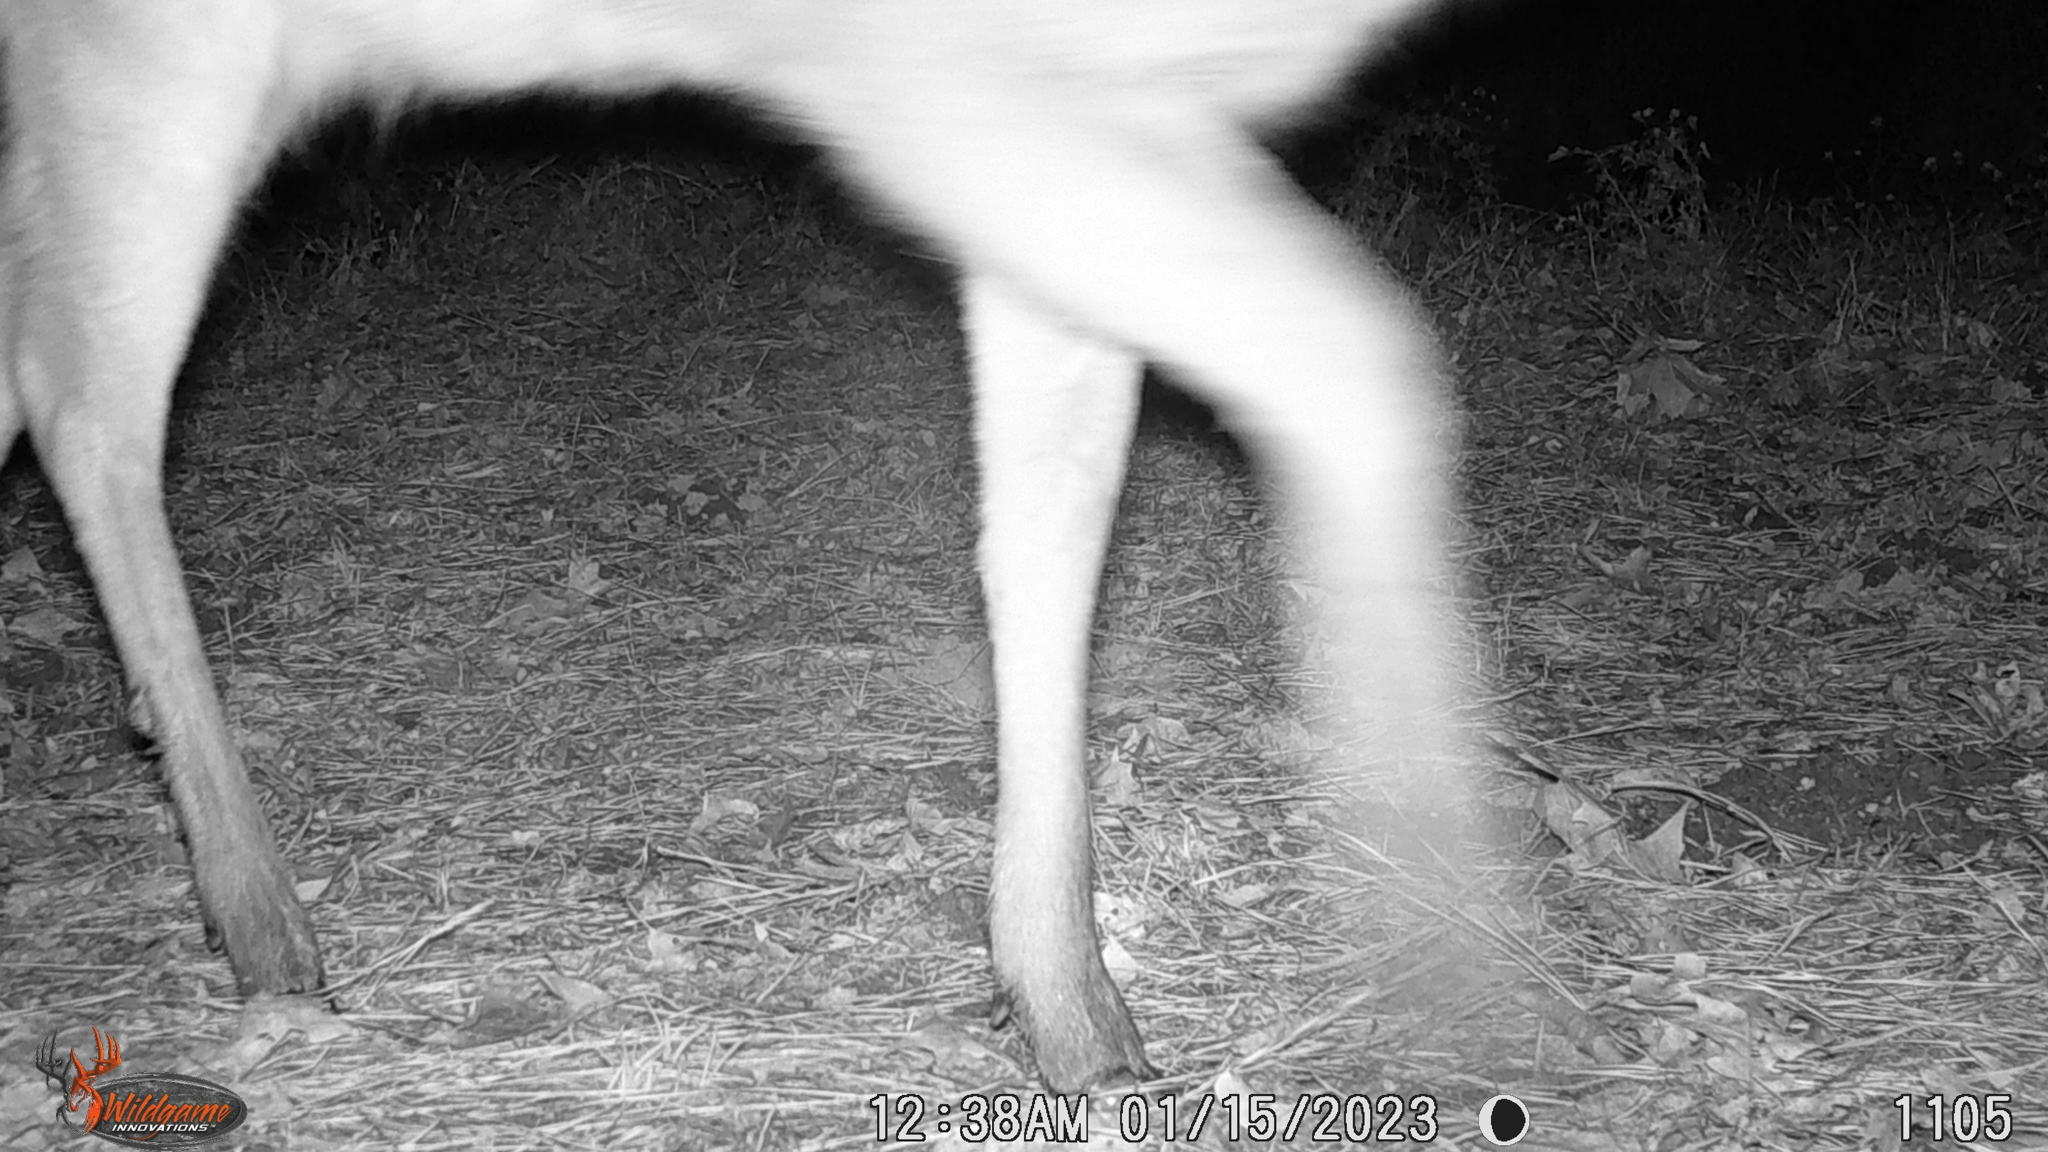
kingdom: Animalia
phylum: Chordata
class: Mammalia
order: Artiodactyla
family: Cervidae
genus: Odocoileus
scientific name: Odocoileus virginianus
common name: White-tailed deer
